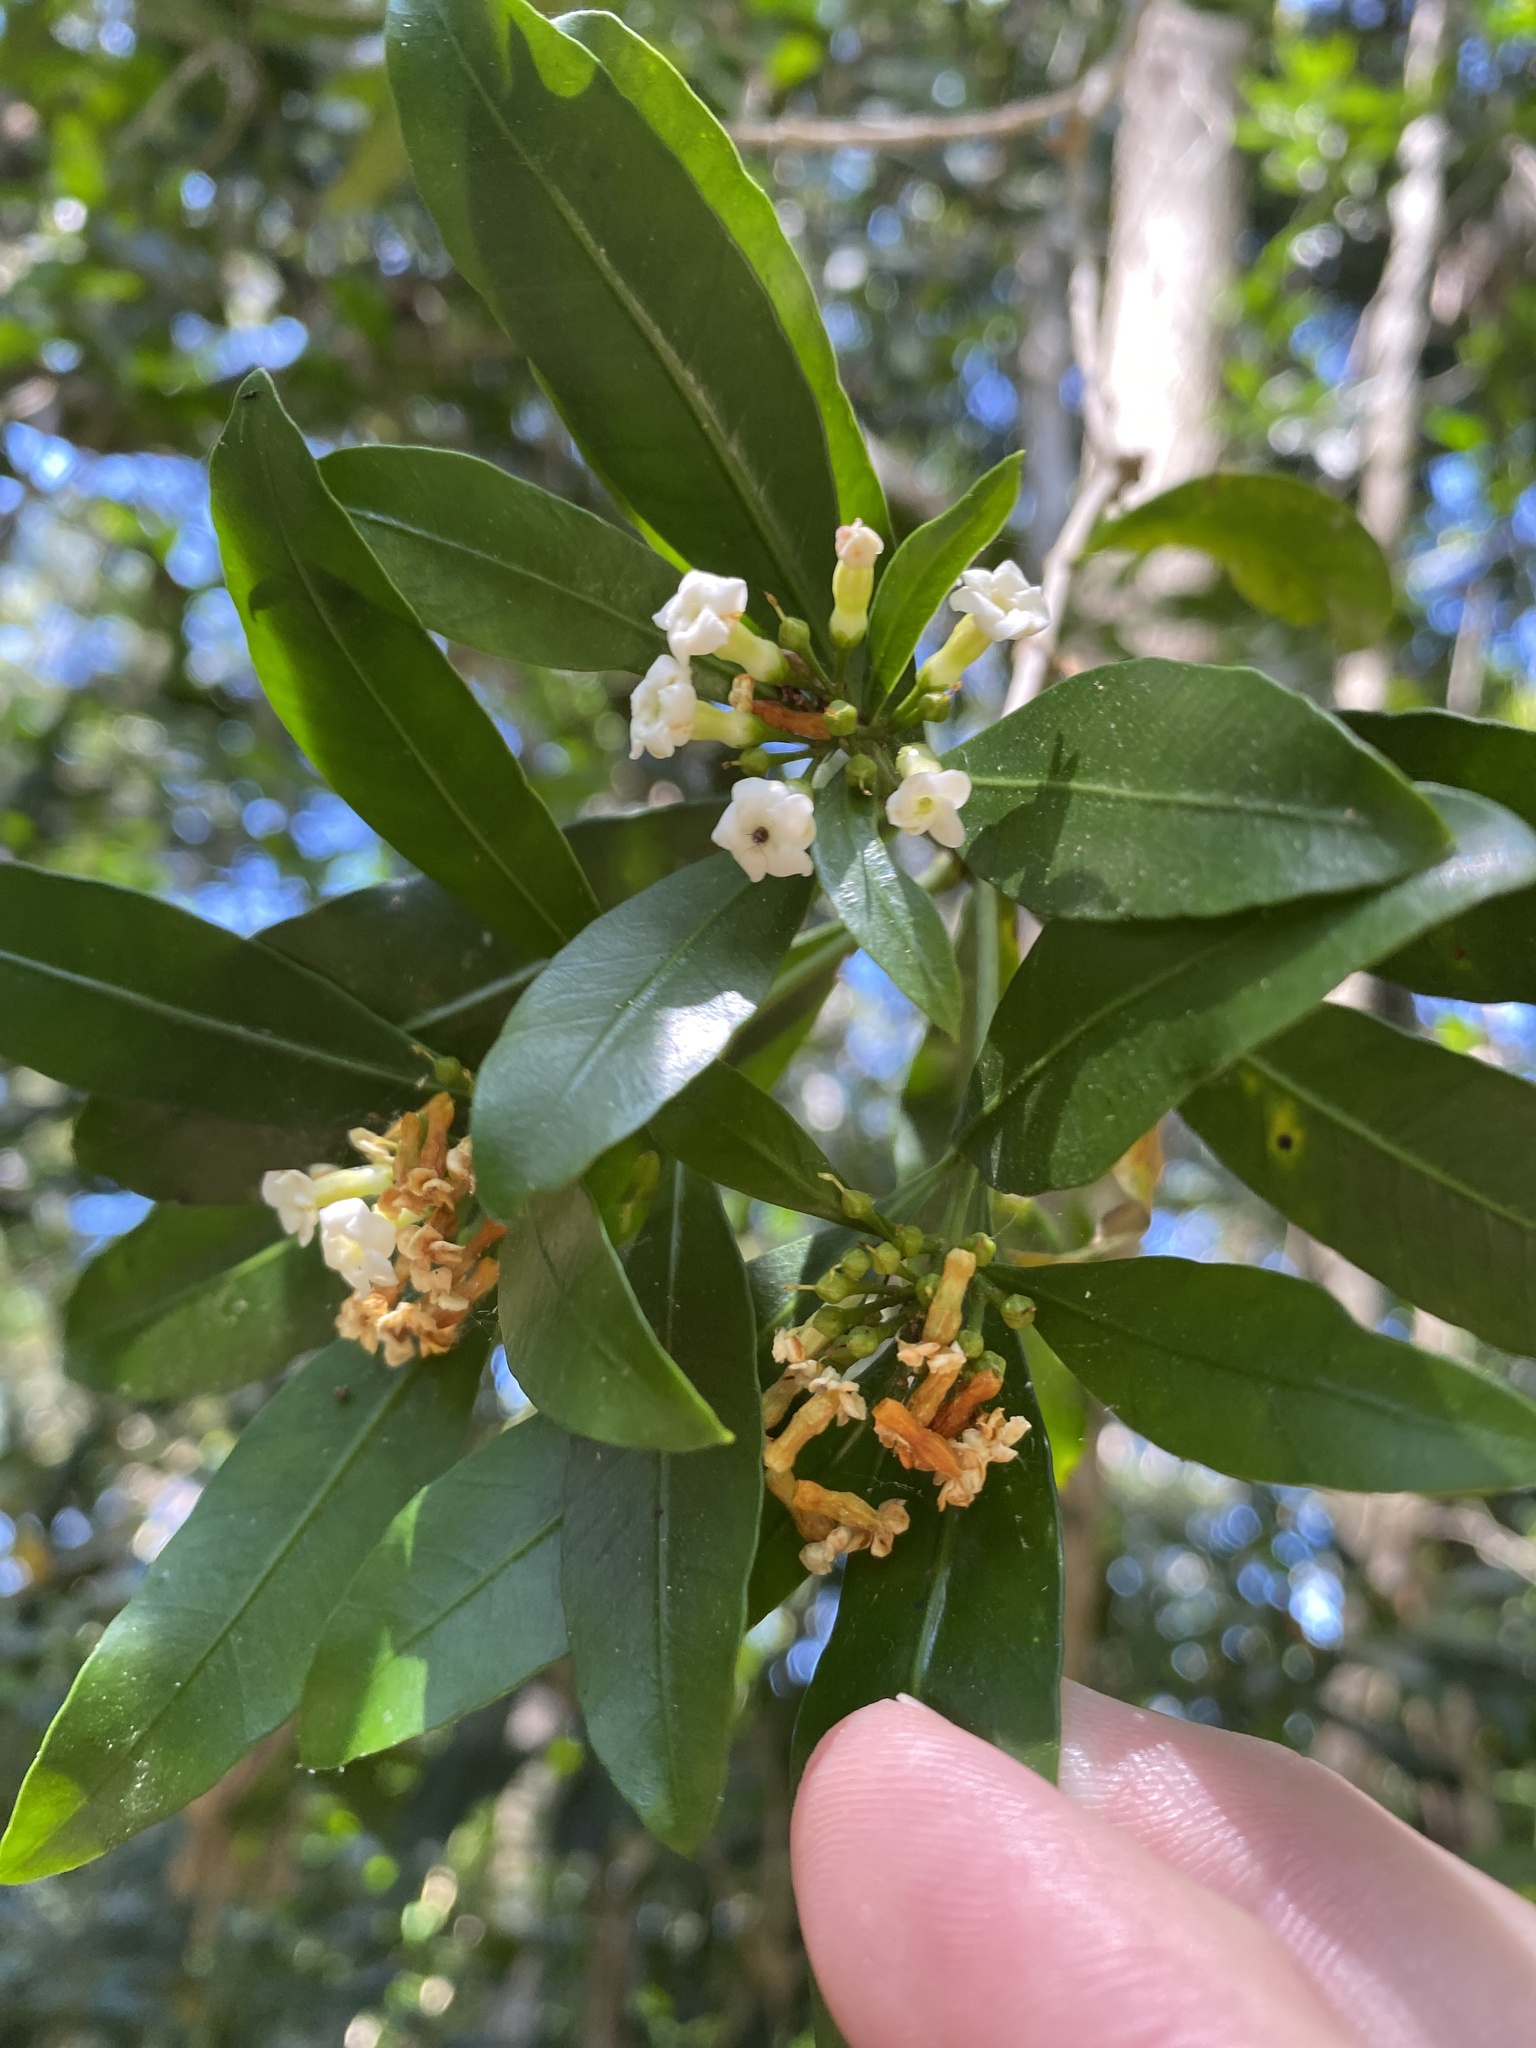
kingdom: Plantae
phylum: Tracheophyta
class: Magnoliopsida
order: Gentianales
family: Apocynaceae
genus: Gonioma
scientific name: Gonioma kamassi
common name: Kamassi
